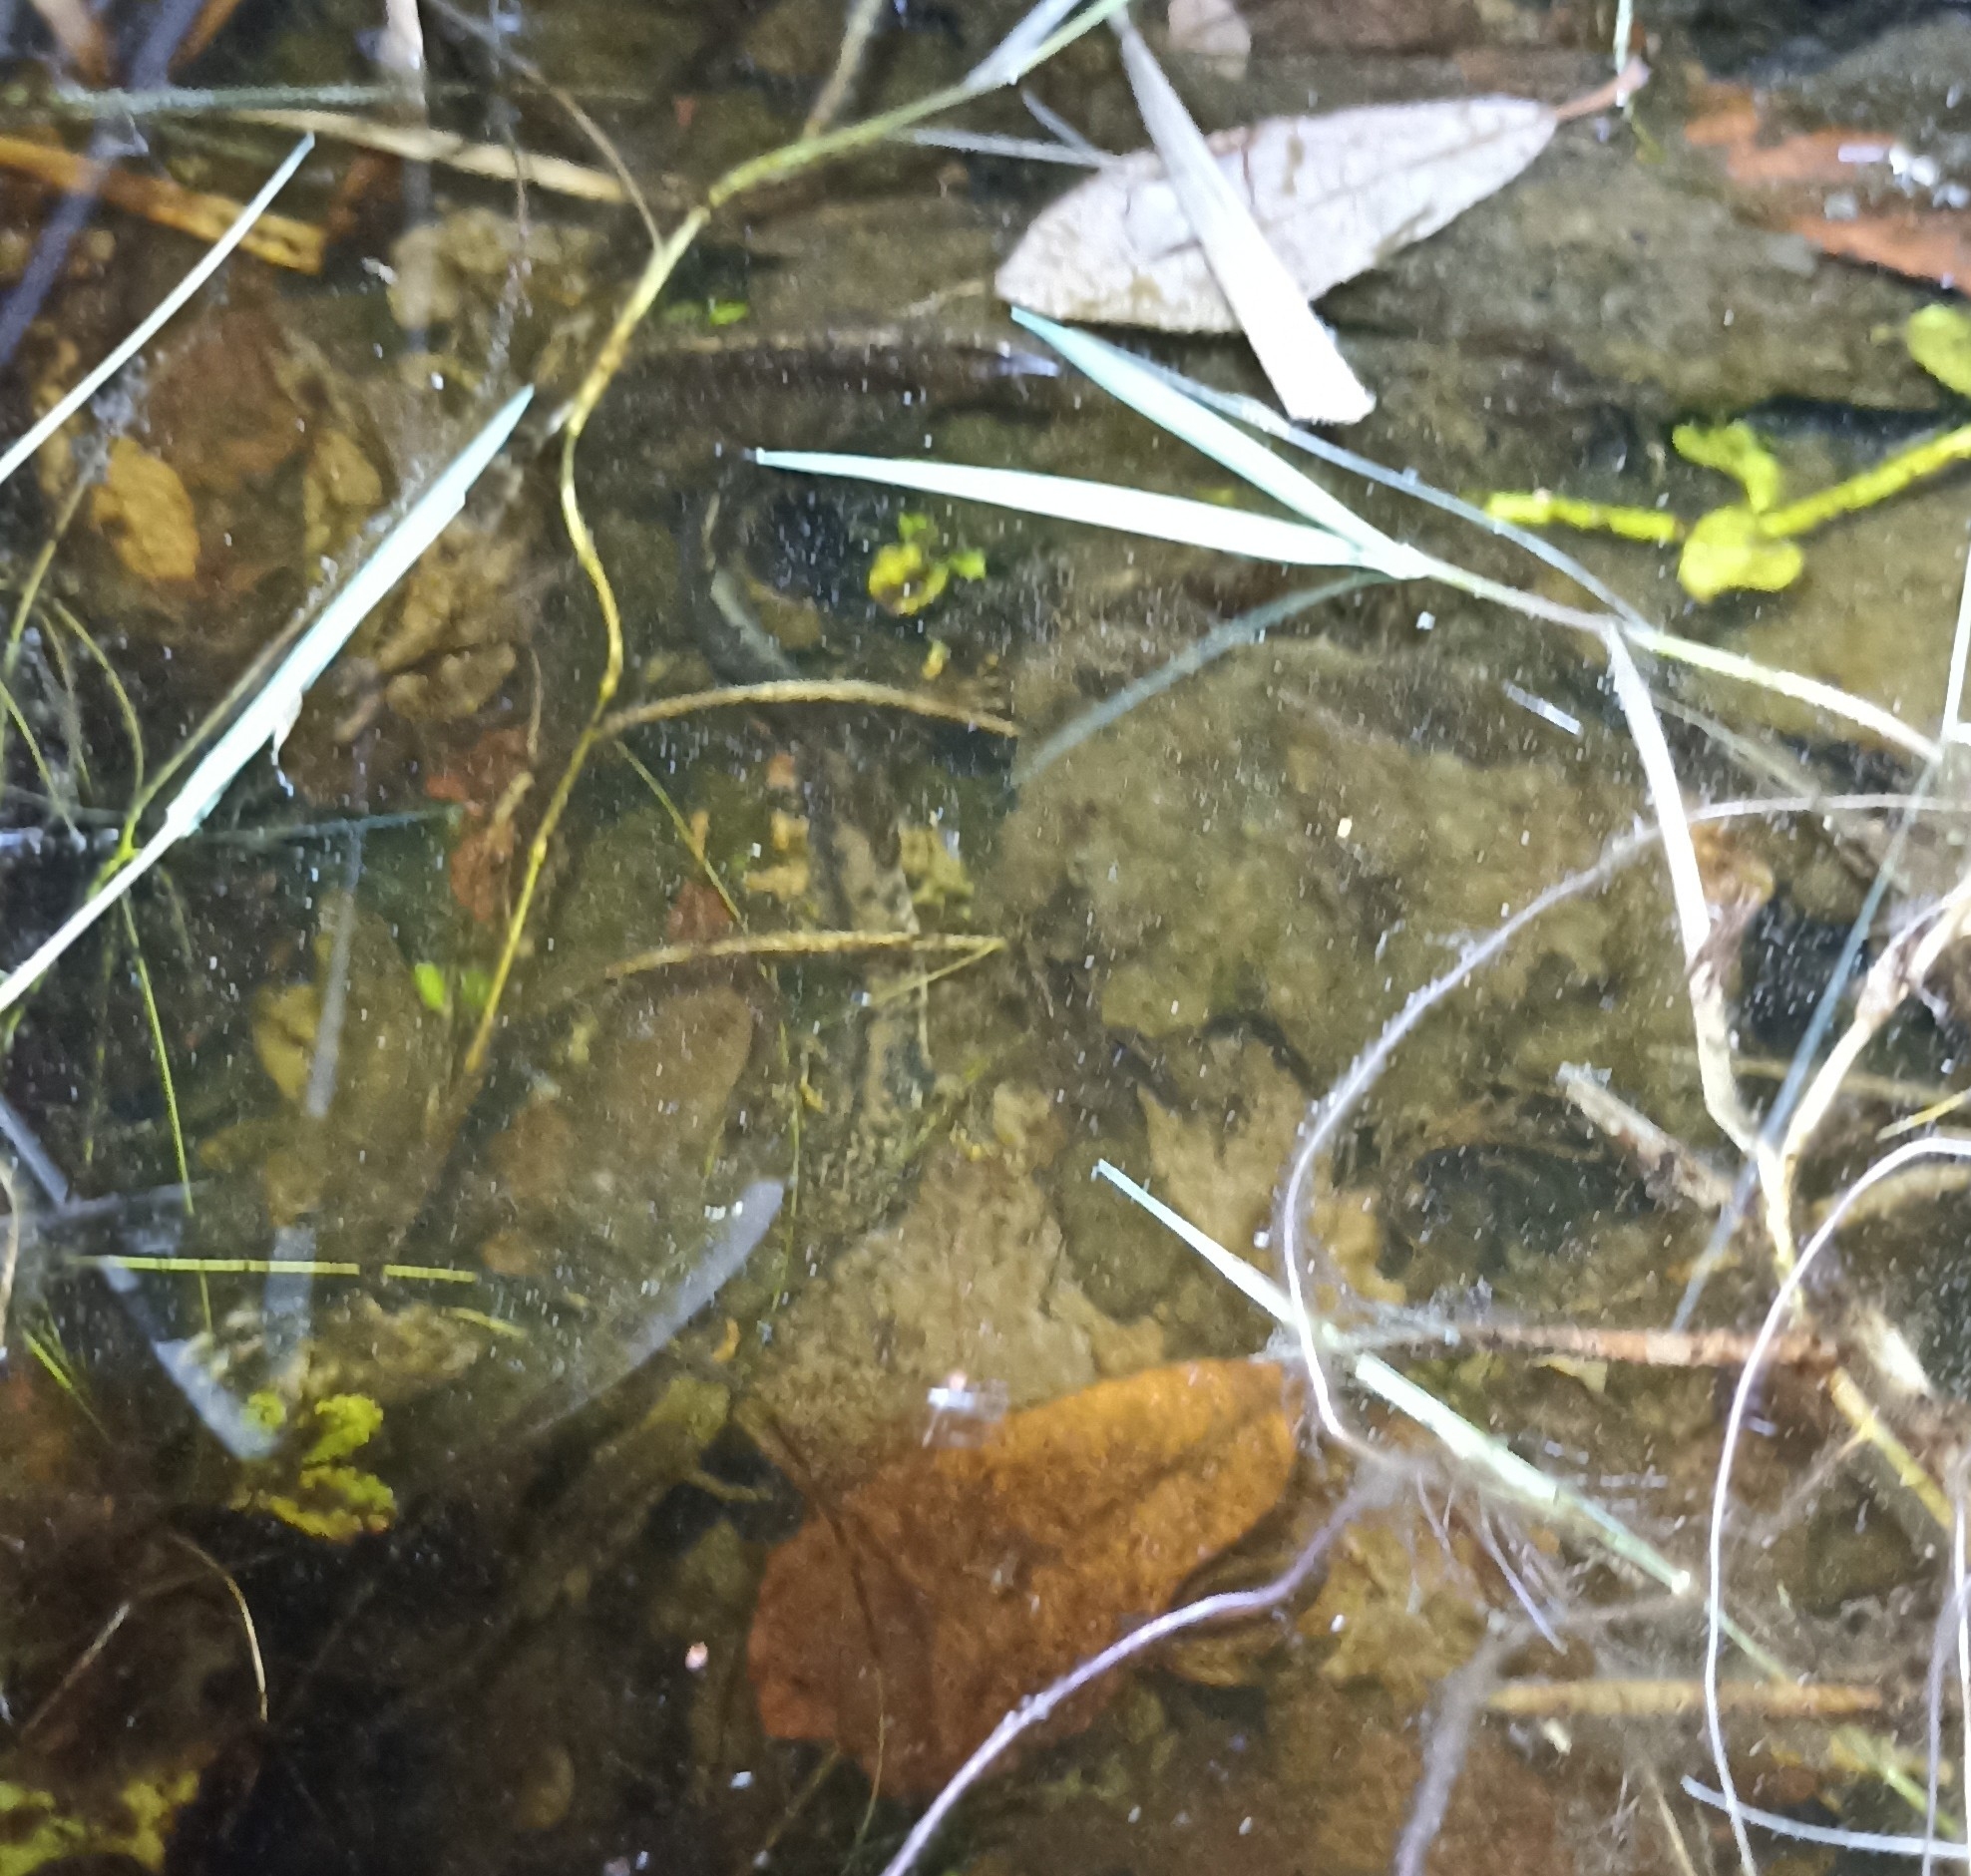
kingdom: Animalia
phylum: Chordata
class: Amphibia
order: Caudata
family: Salamandridae
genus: Triturus
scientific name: Triturus cristatus
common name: Crested newt
